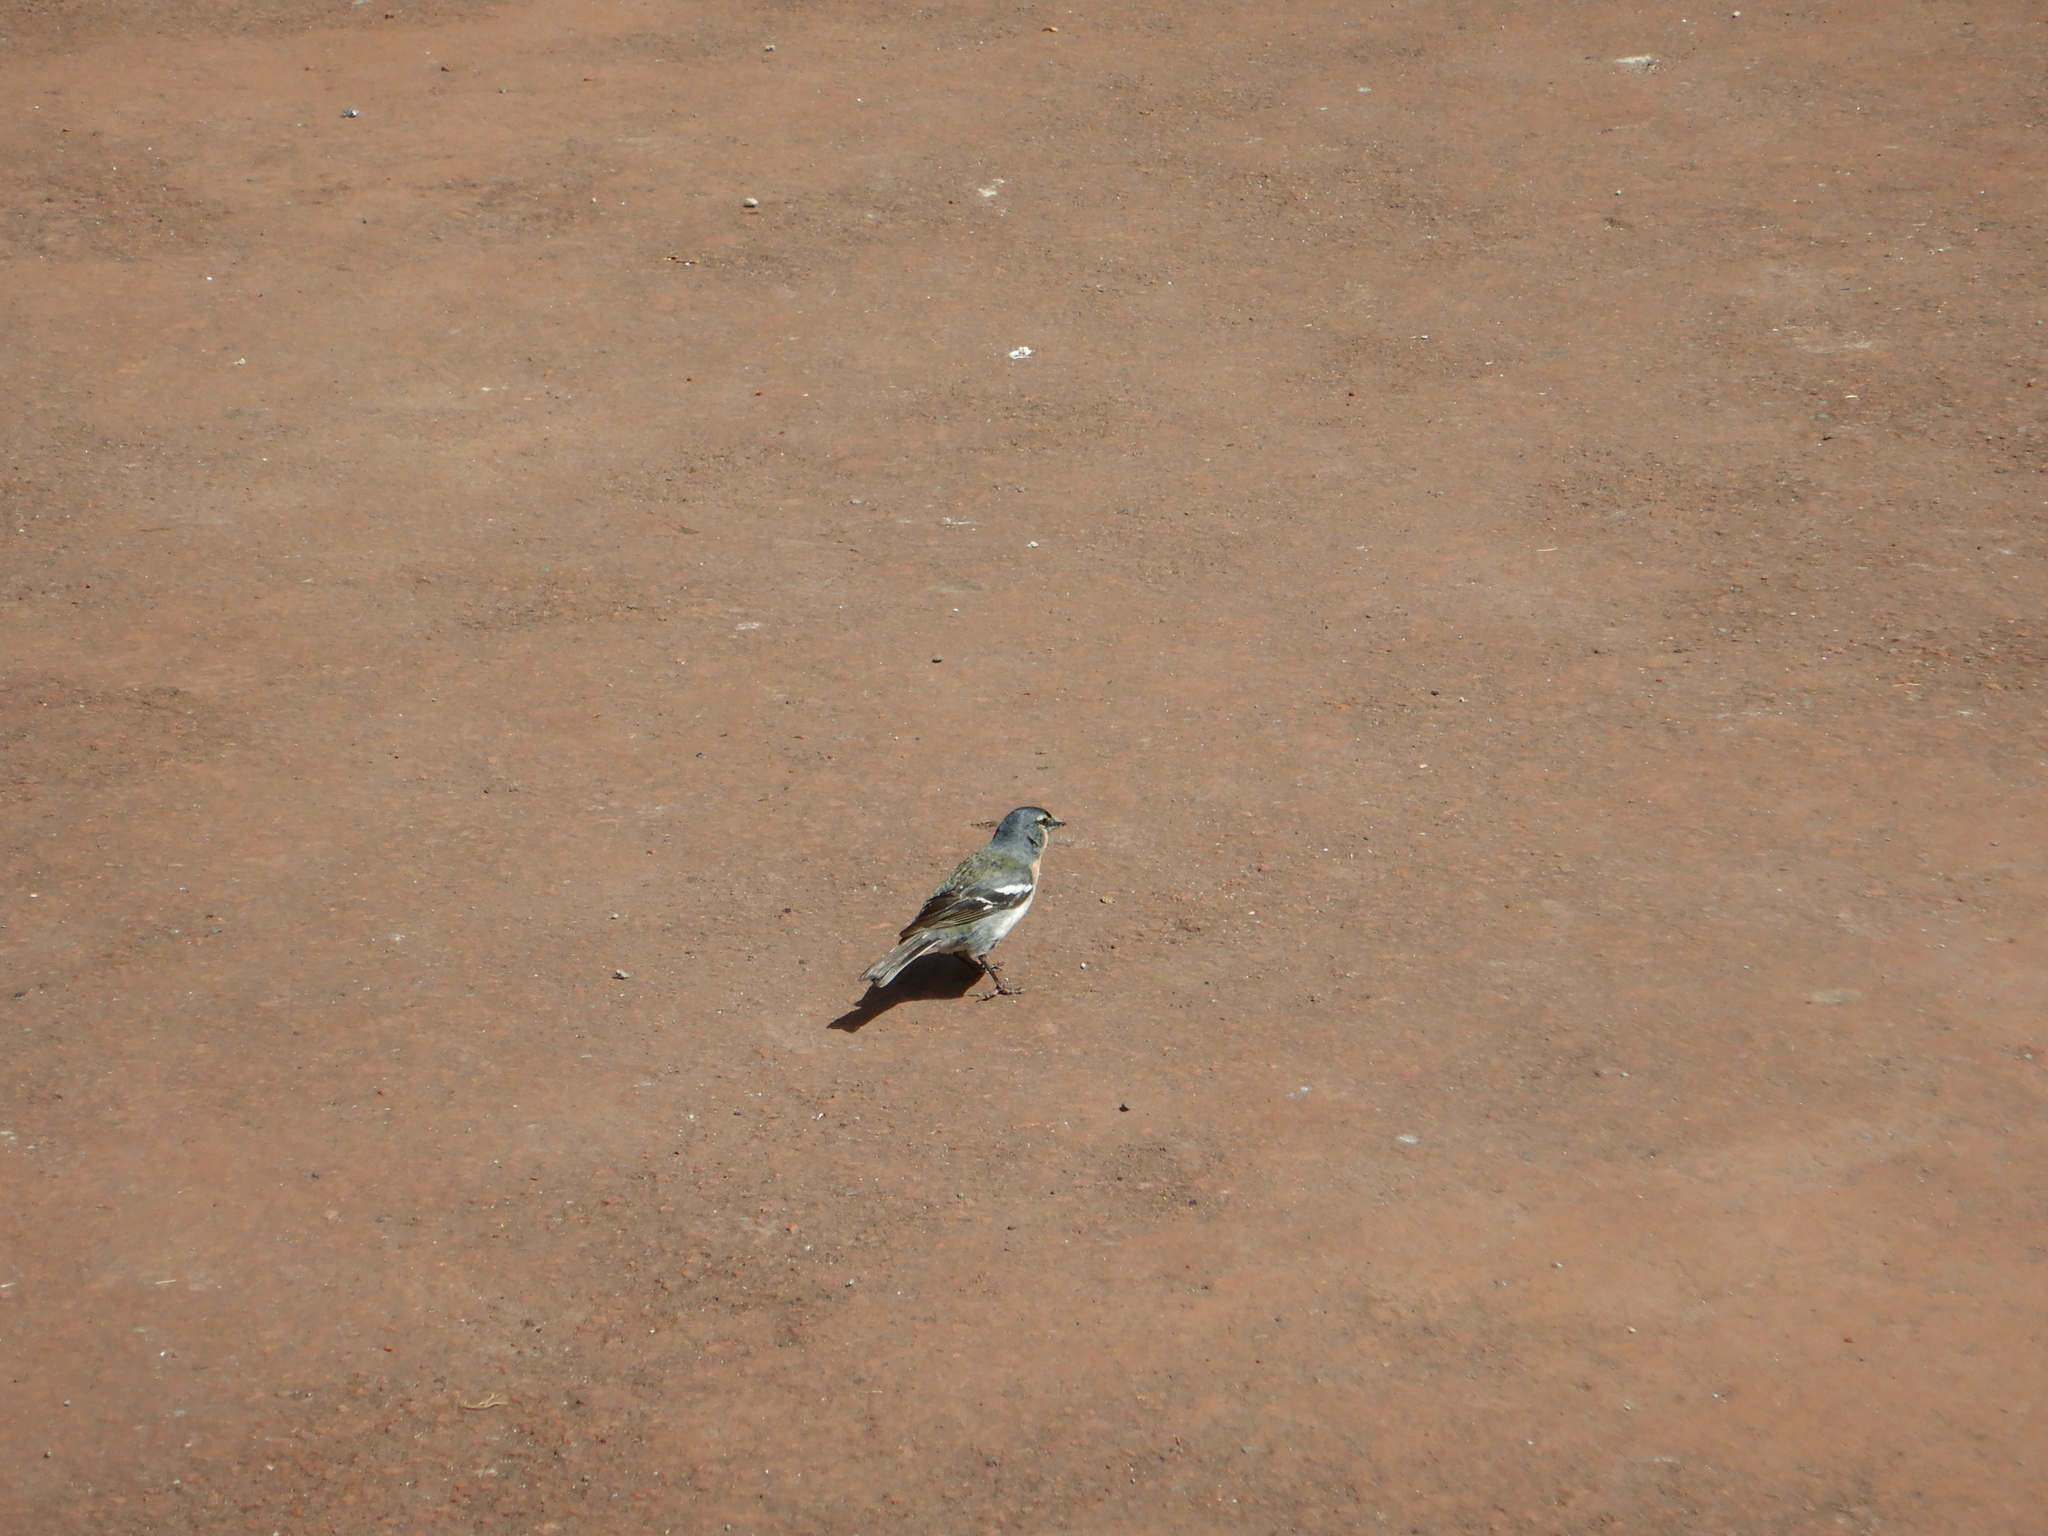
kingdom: Animalia
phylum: Chordata
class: Aves
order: Passeriformes
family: Fringillidae
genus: Fringilla
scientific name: Fringilla moreletti
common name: Azores chaffinch
